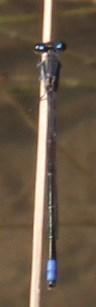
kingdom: Animalia
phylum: Arthropoda
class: Insecta
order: Odonata
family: Coenagrionidae
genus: Pseudagrion
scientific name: Pseudagrion salisburyense
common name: Slate sprite
